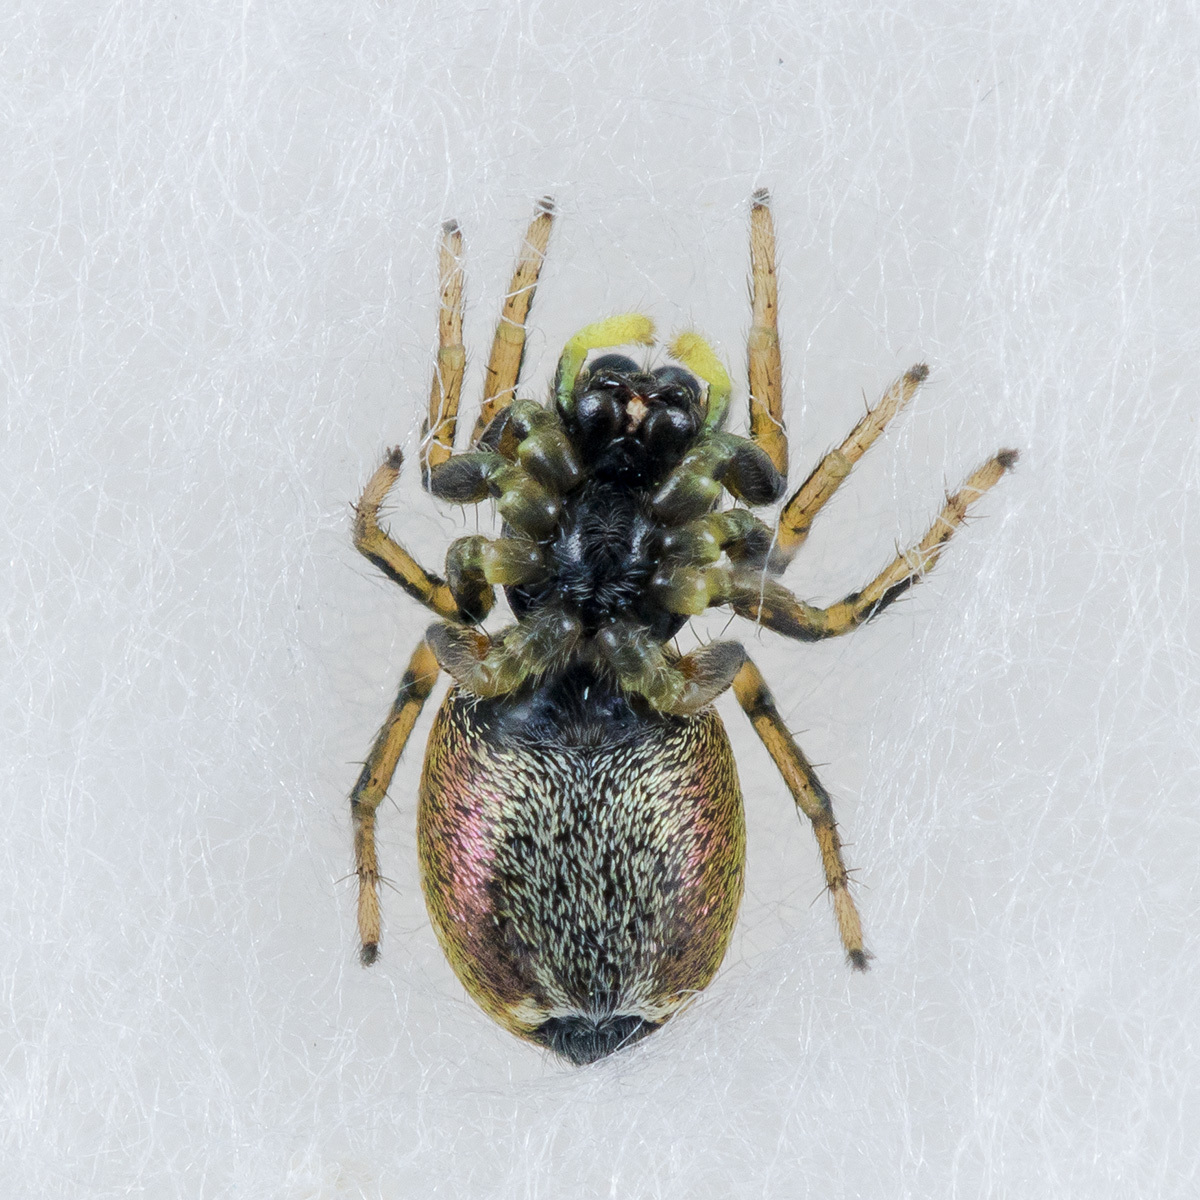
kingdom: Animalia
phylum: Arthropoda
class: Arachnida
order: Araneae
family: Salticidae
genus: Heliophanus
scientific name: Heliophanus auratus
